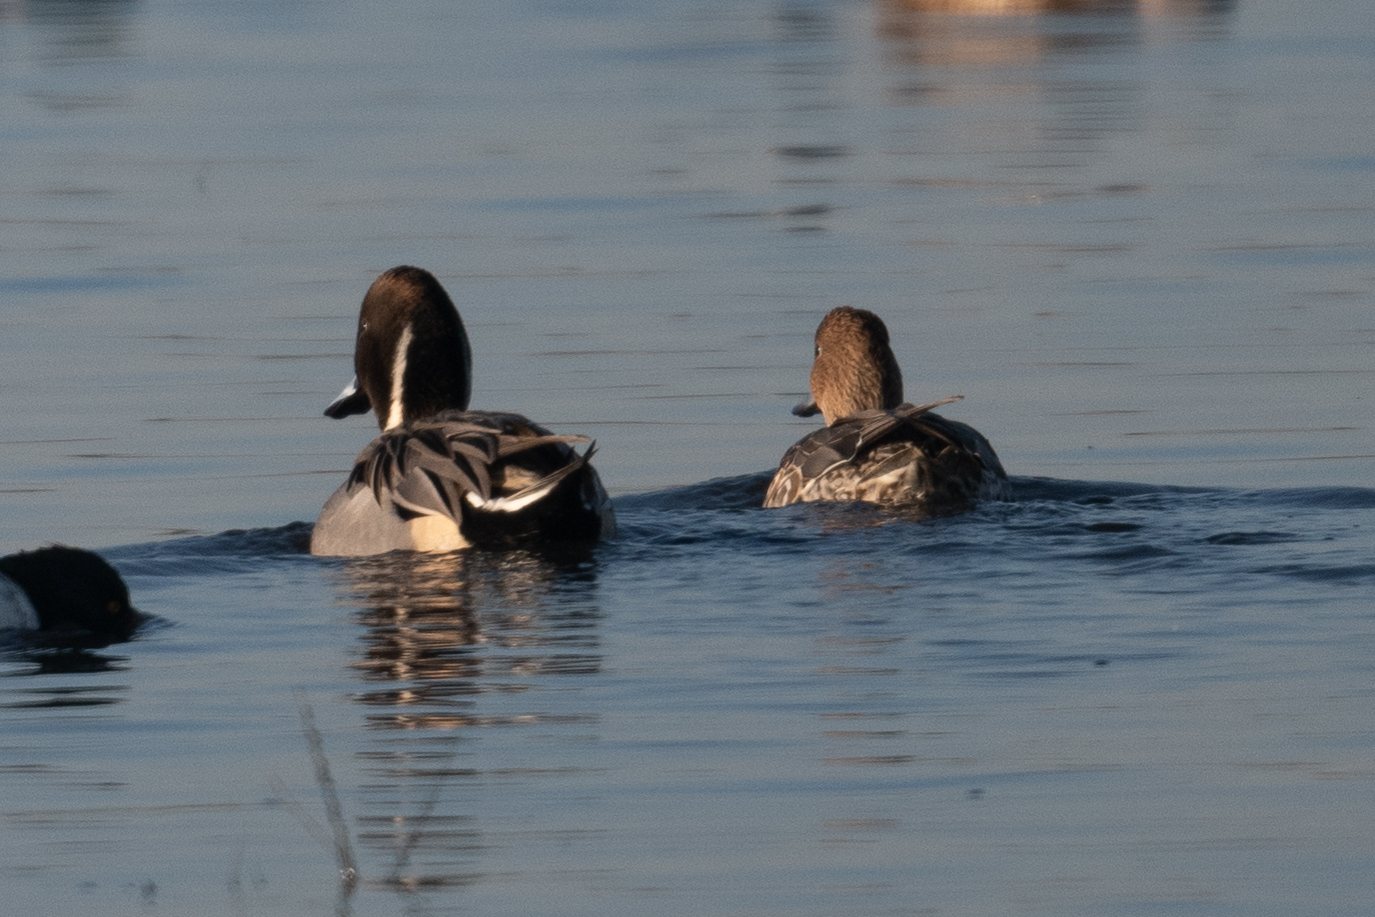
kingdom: Animalia
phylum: Chordata
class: Aves
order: Anseriformes
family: Anatidae
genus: Anas
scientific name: Anas acuta
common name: Northern pintail
